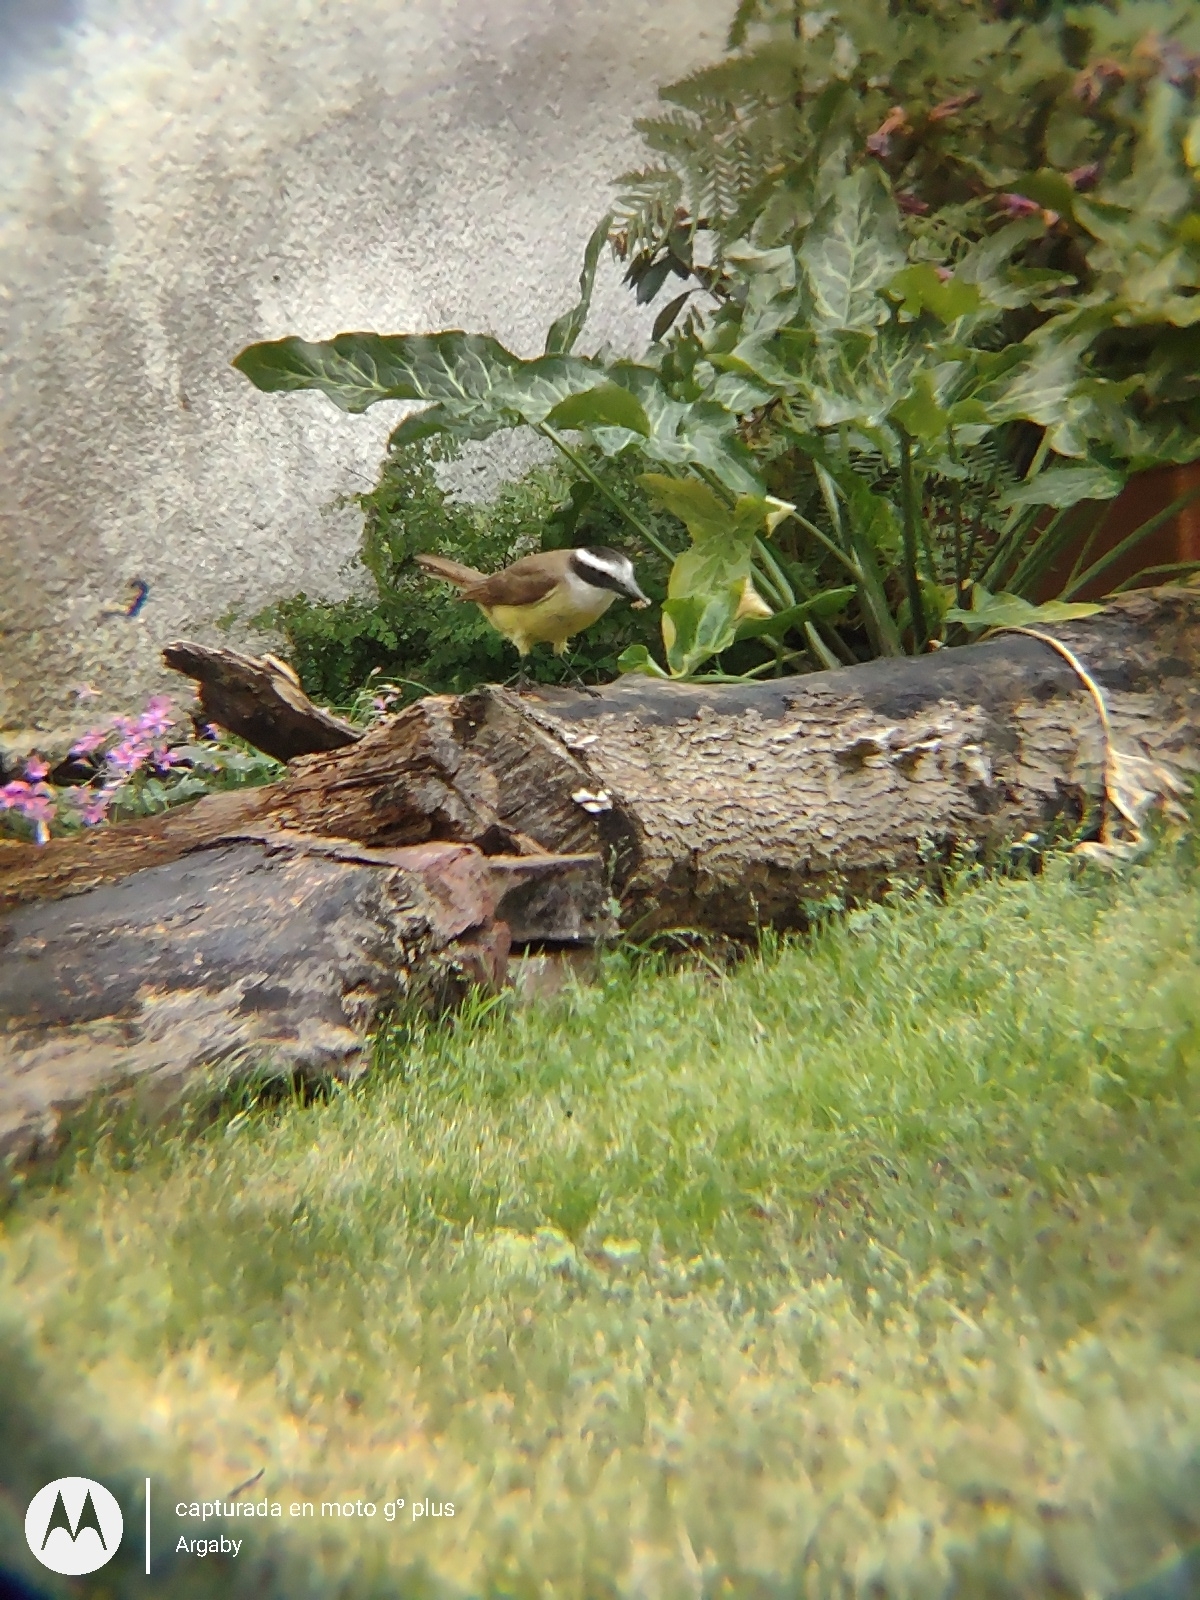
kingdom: Animalia
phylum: Chordata
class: Aves
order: Passeriformes
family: Tyrannidae
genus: Pitangus
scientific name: Pitangus sulphuratus
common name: Great kiskadee
